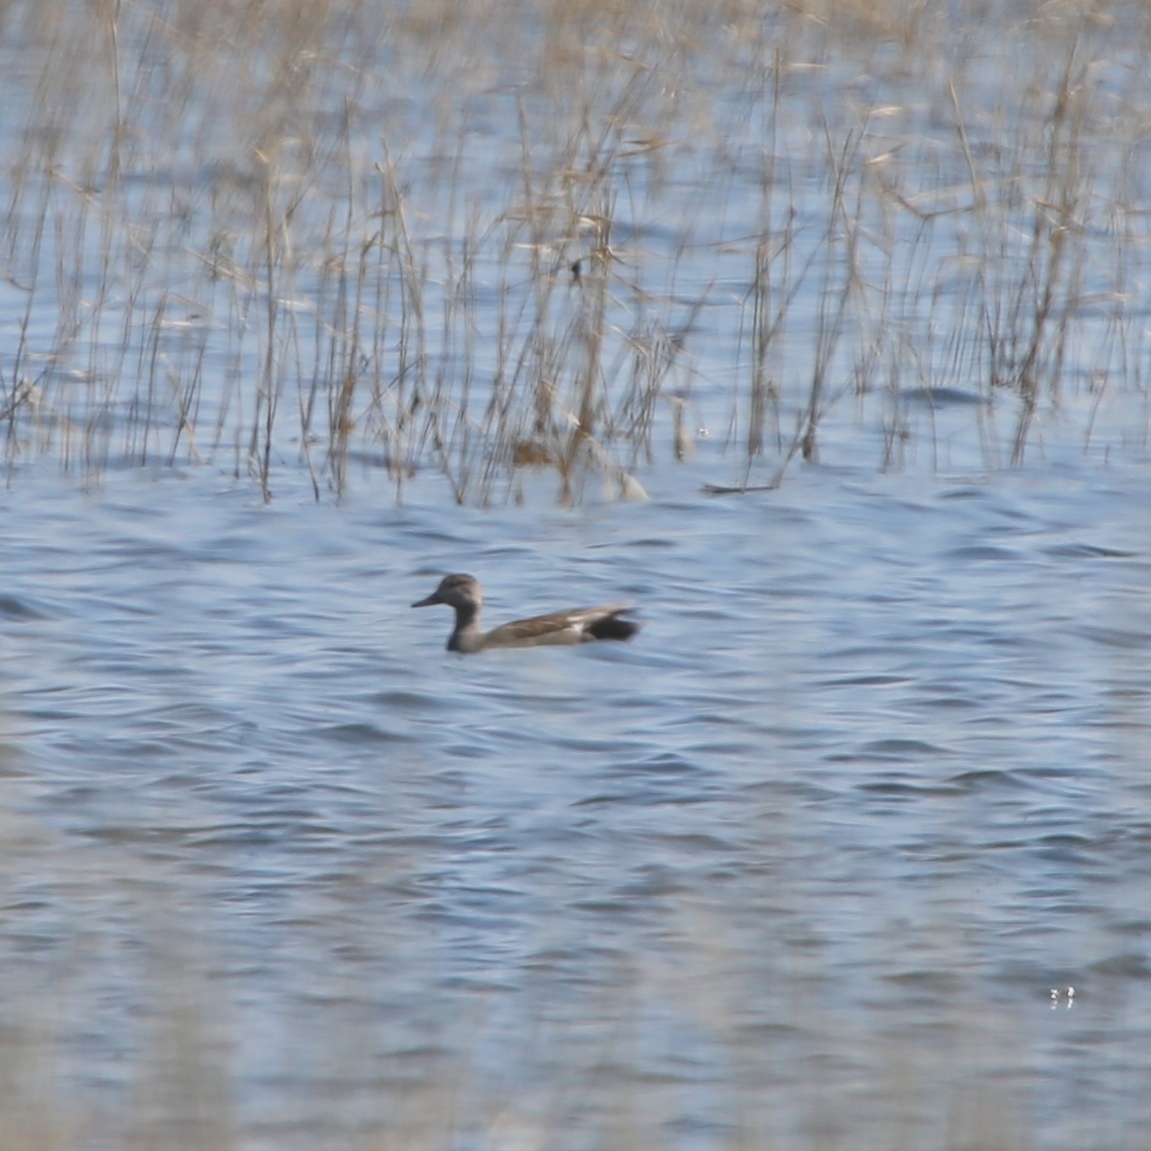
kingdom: Animalia
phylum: Chordata
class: Aves
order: Anseriformes
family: Anatidae
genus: Mareca
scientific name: Mareca strepera
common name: Gadwall
